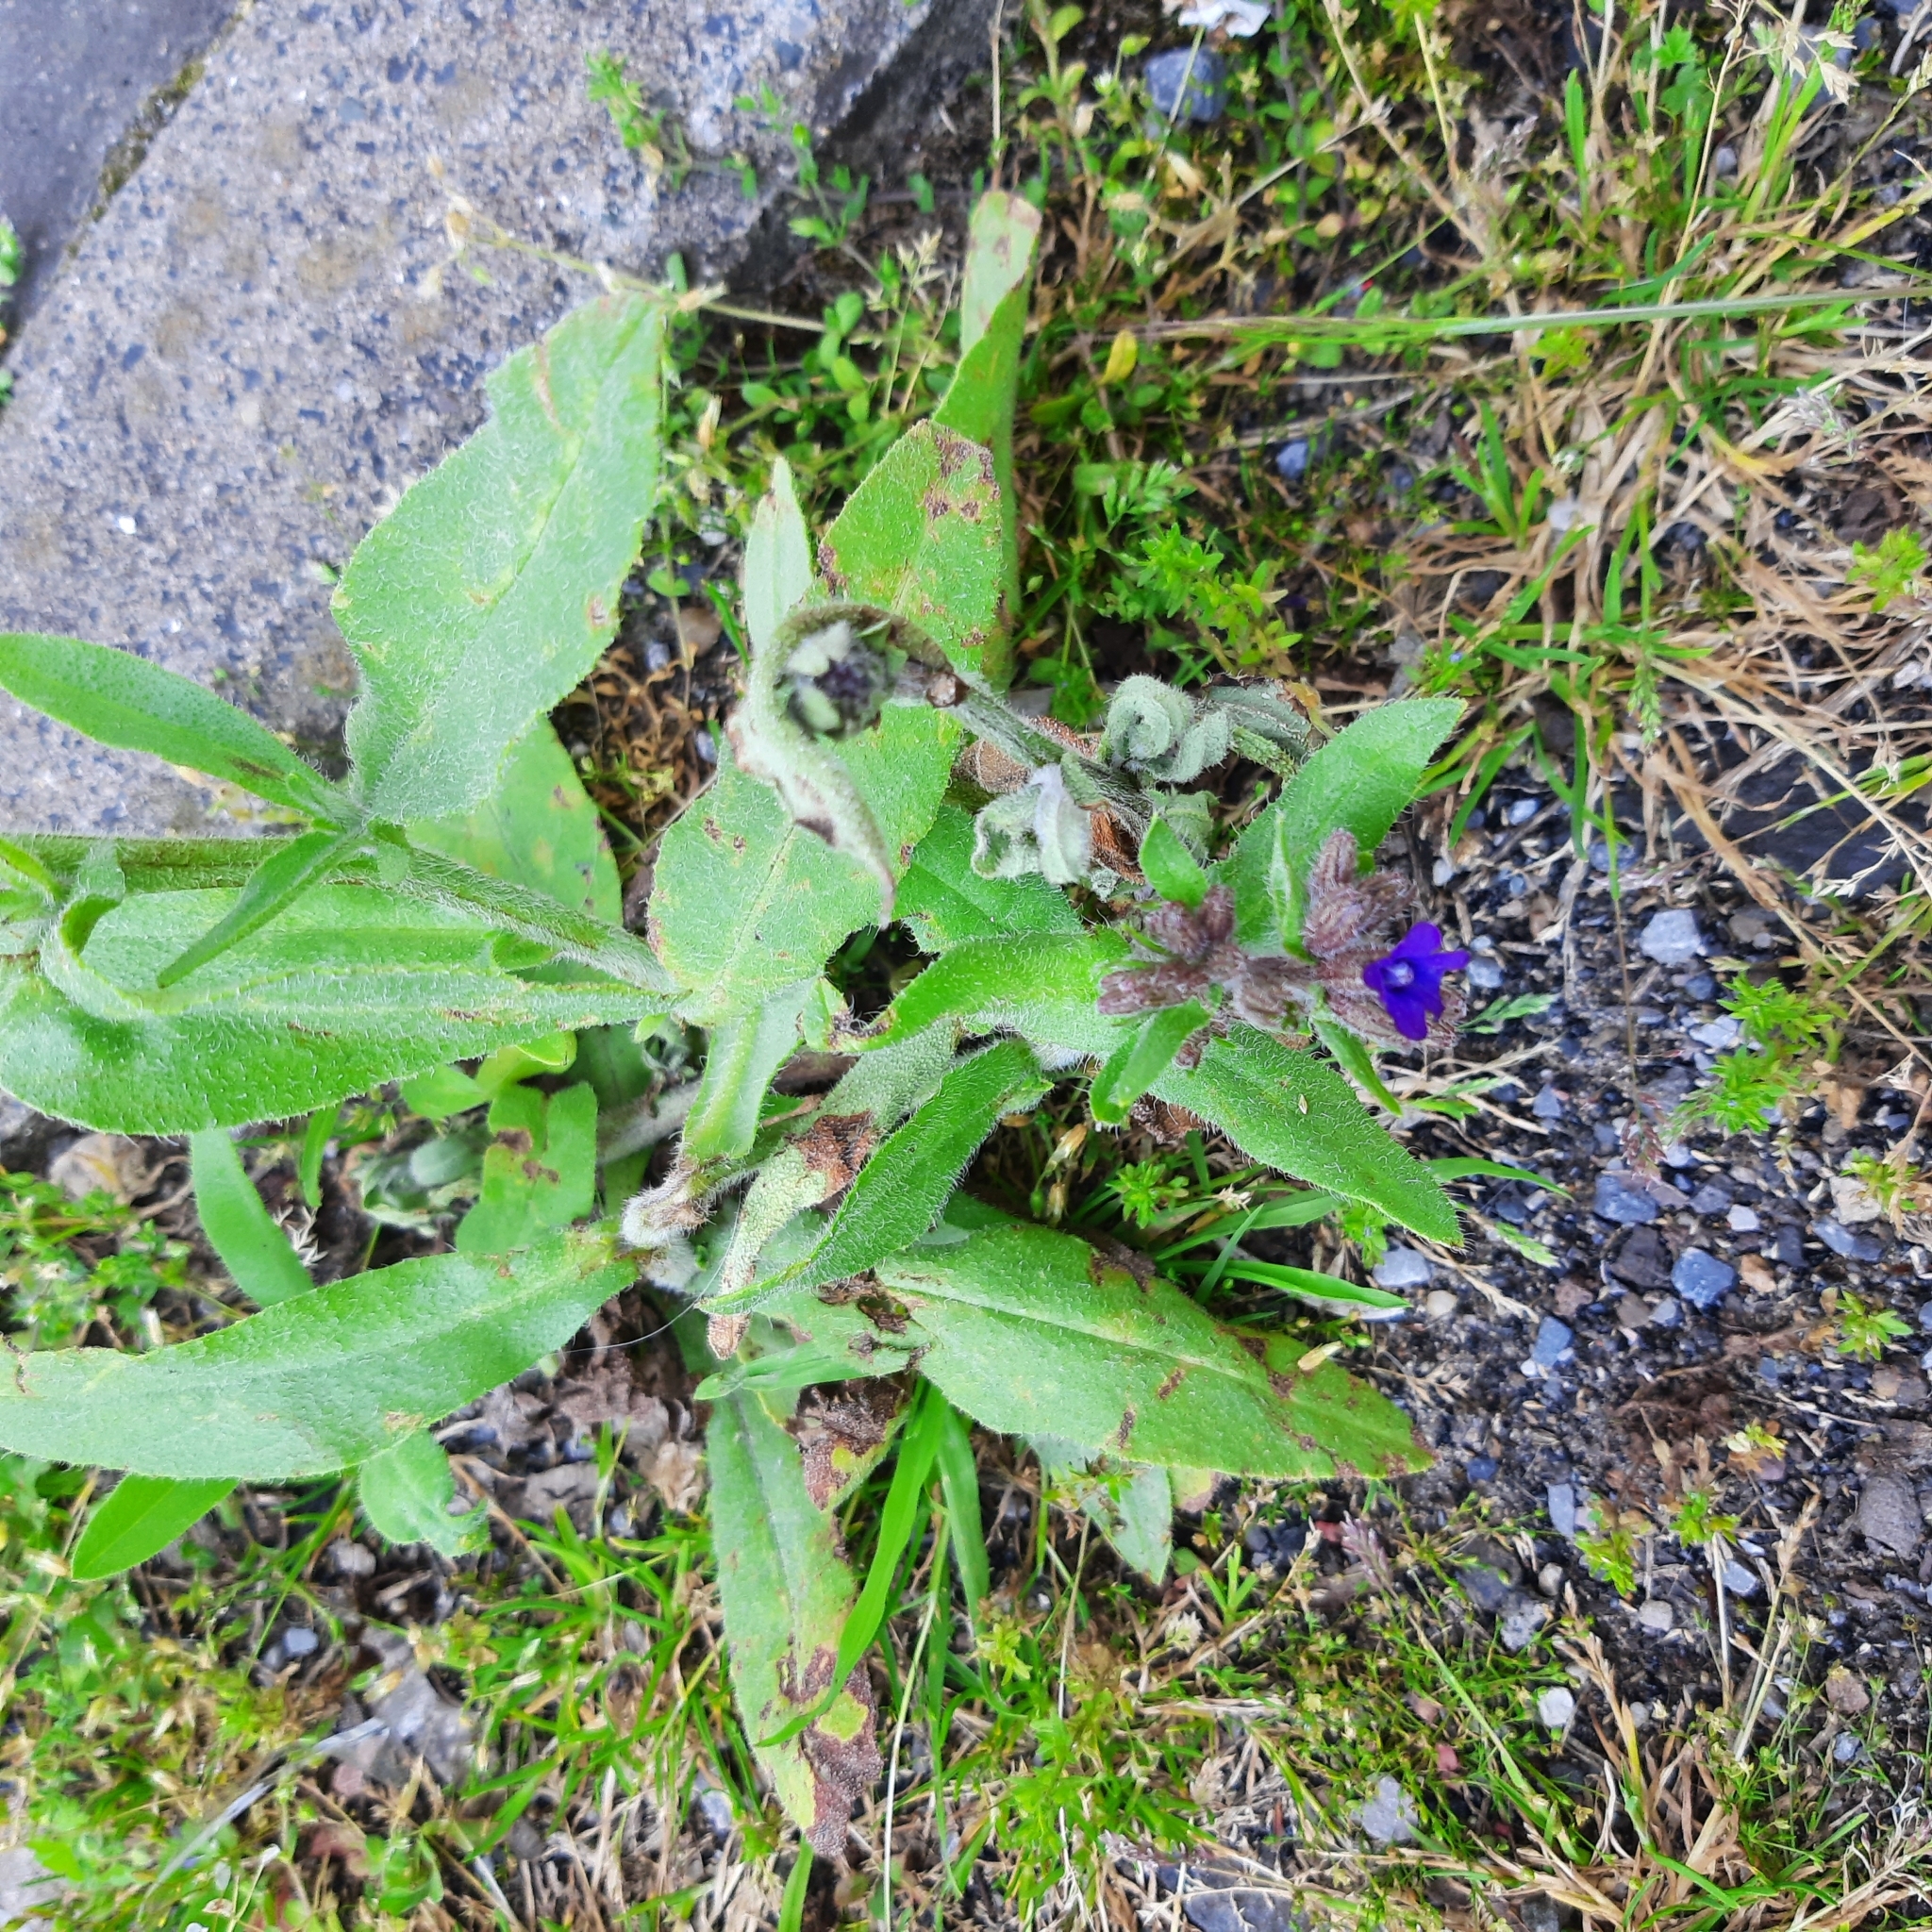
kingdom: Plantae
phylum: Tracheophyta
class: Magnoliopsida
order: Boraginales
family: Boraginaceae
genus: Anchusa
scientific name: Anchusa officinalis
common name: Alkanet
